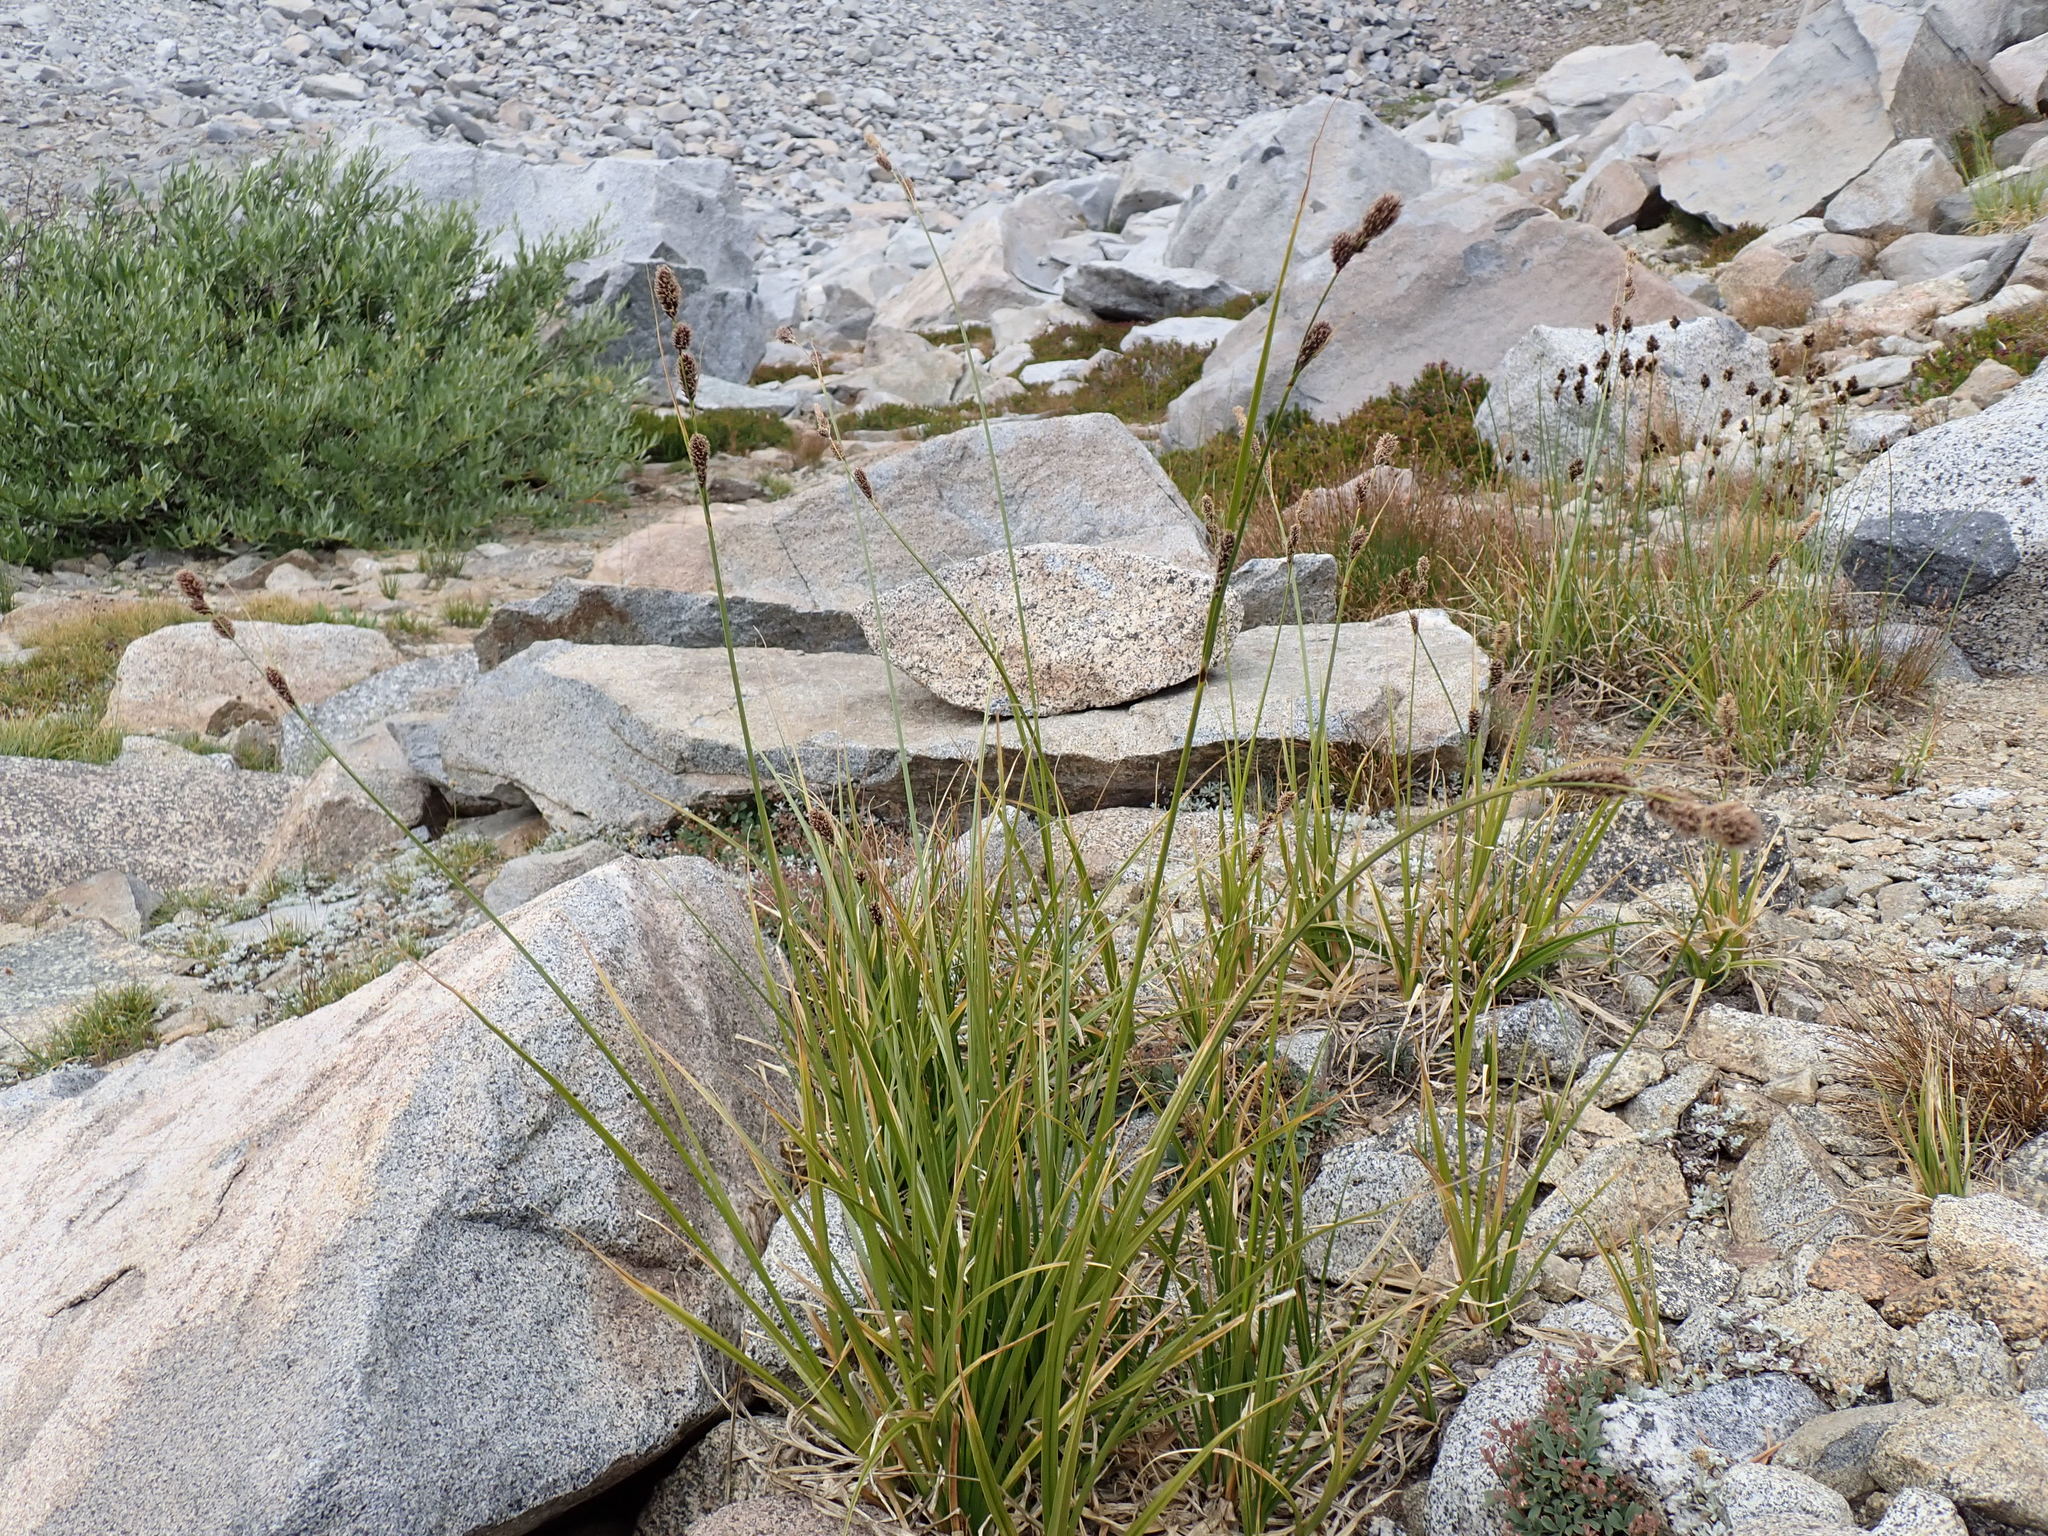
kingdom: Plantae
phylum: Tracheophyta
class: Liliopsida
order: Poales
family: Cyperaceae
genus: Carex
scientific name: Carex congdonii
